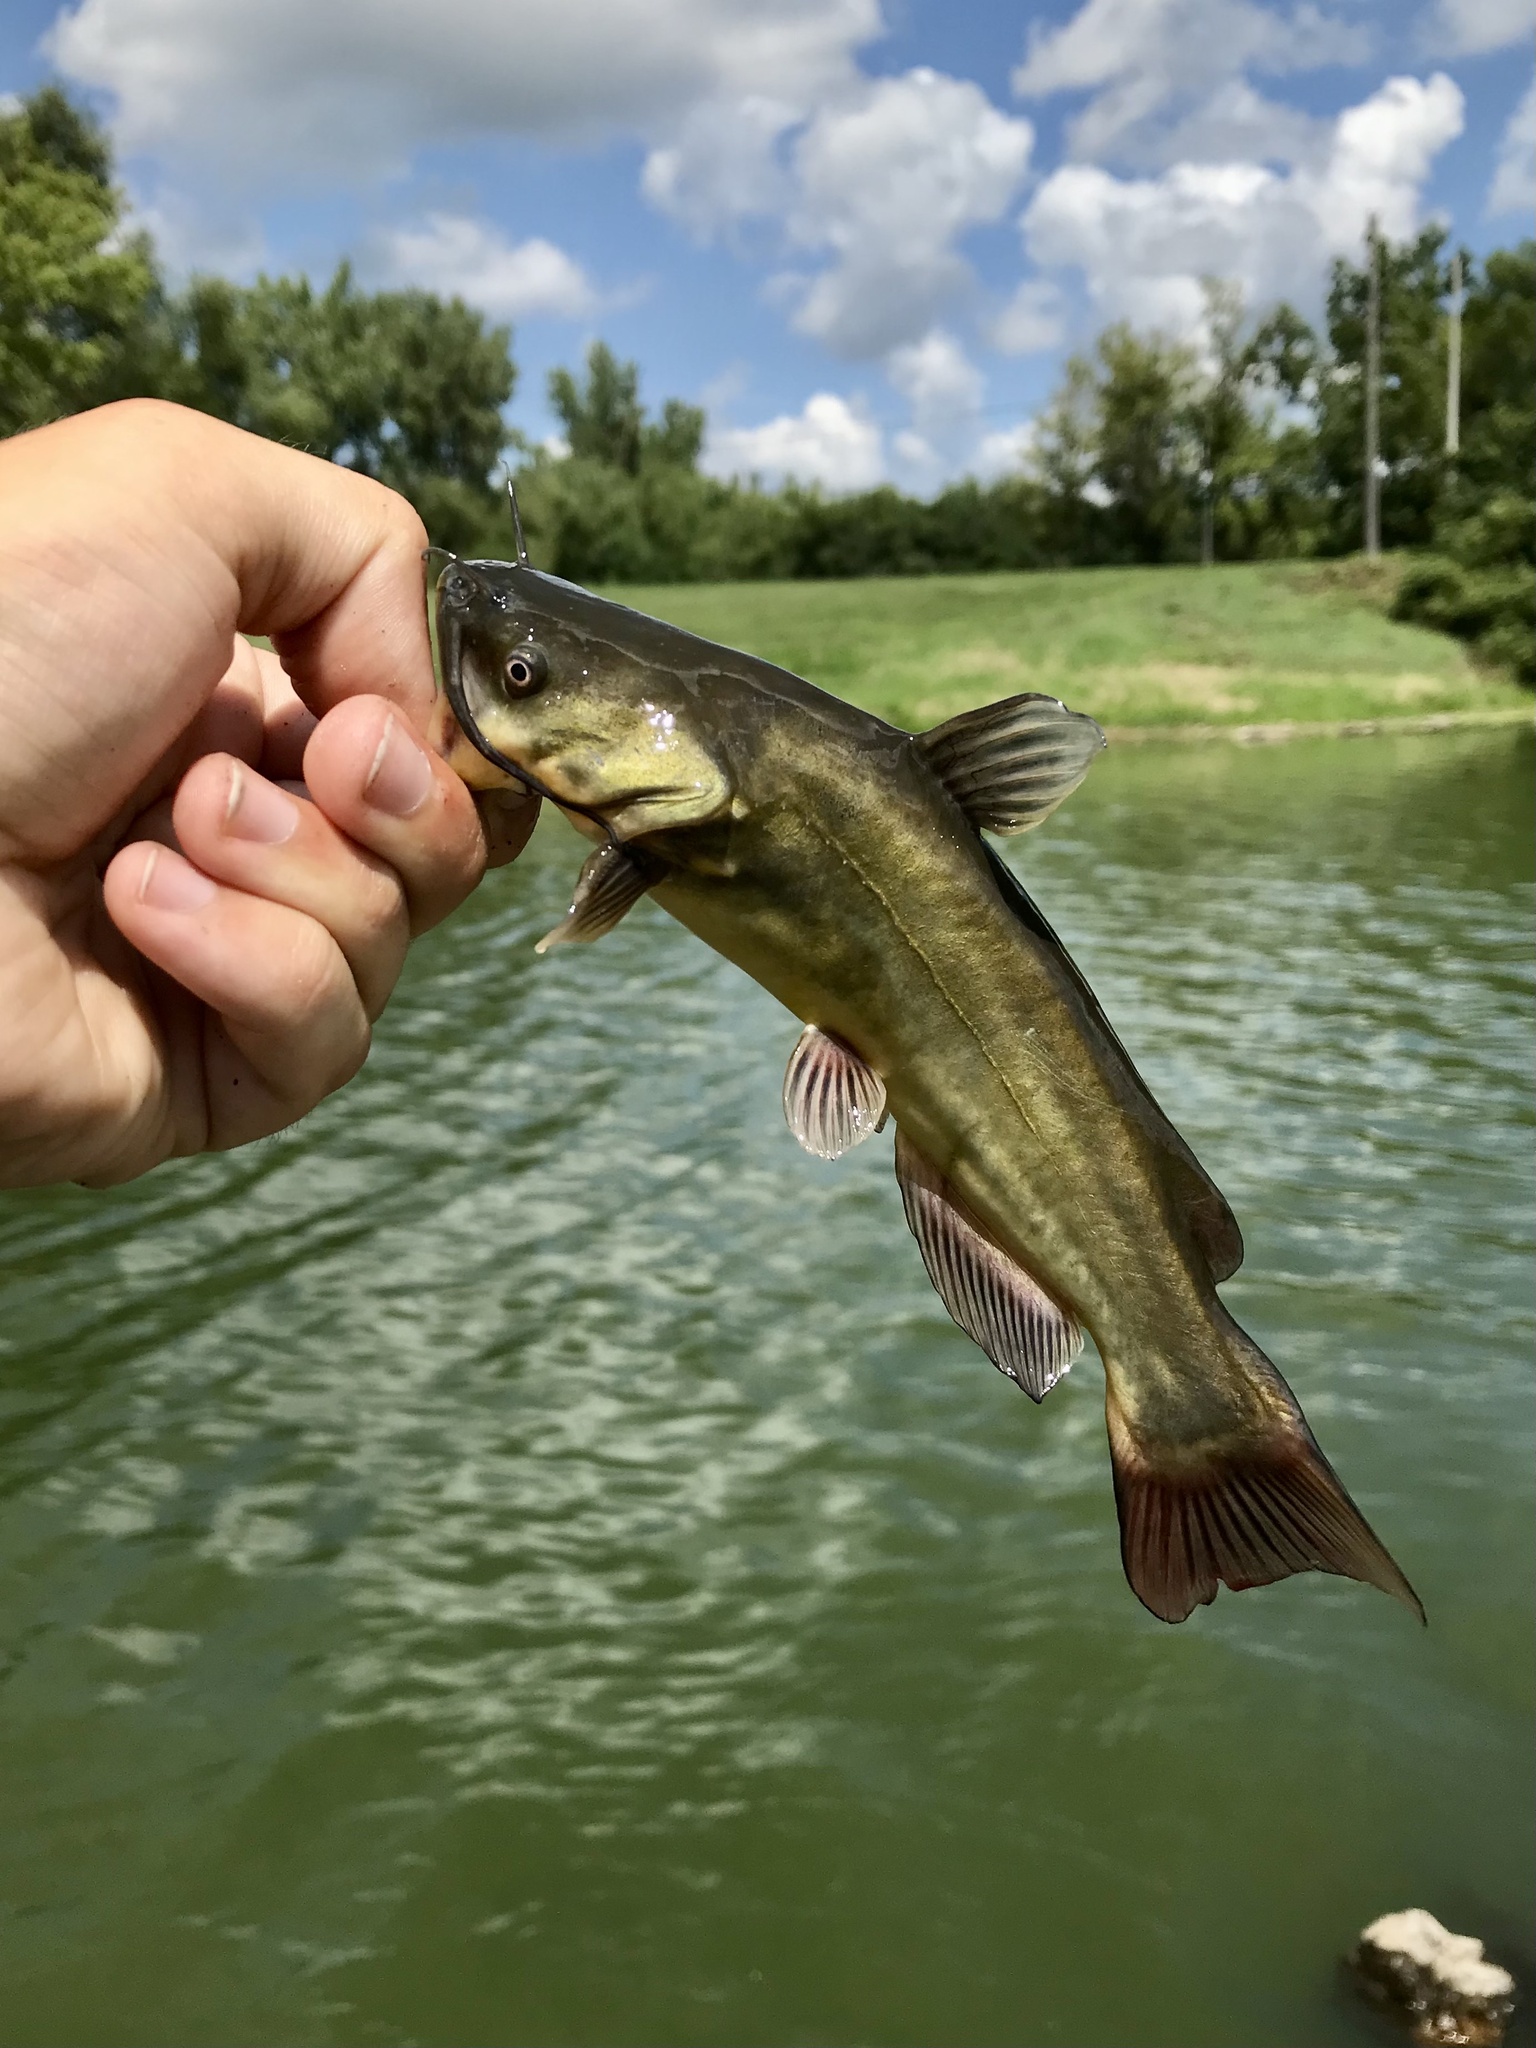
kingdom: Animalia
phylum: Chordata
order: Siluriformes
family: Ictaluridae
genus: Ameiurus
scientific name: Ameiurus melas
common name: Black bullhead
